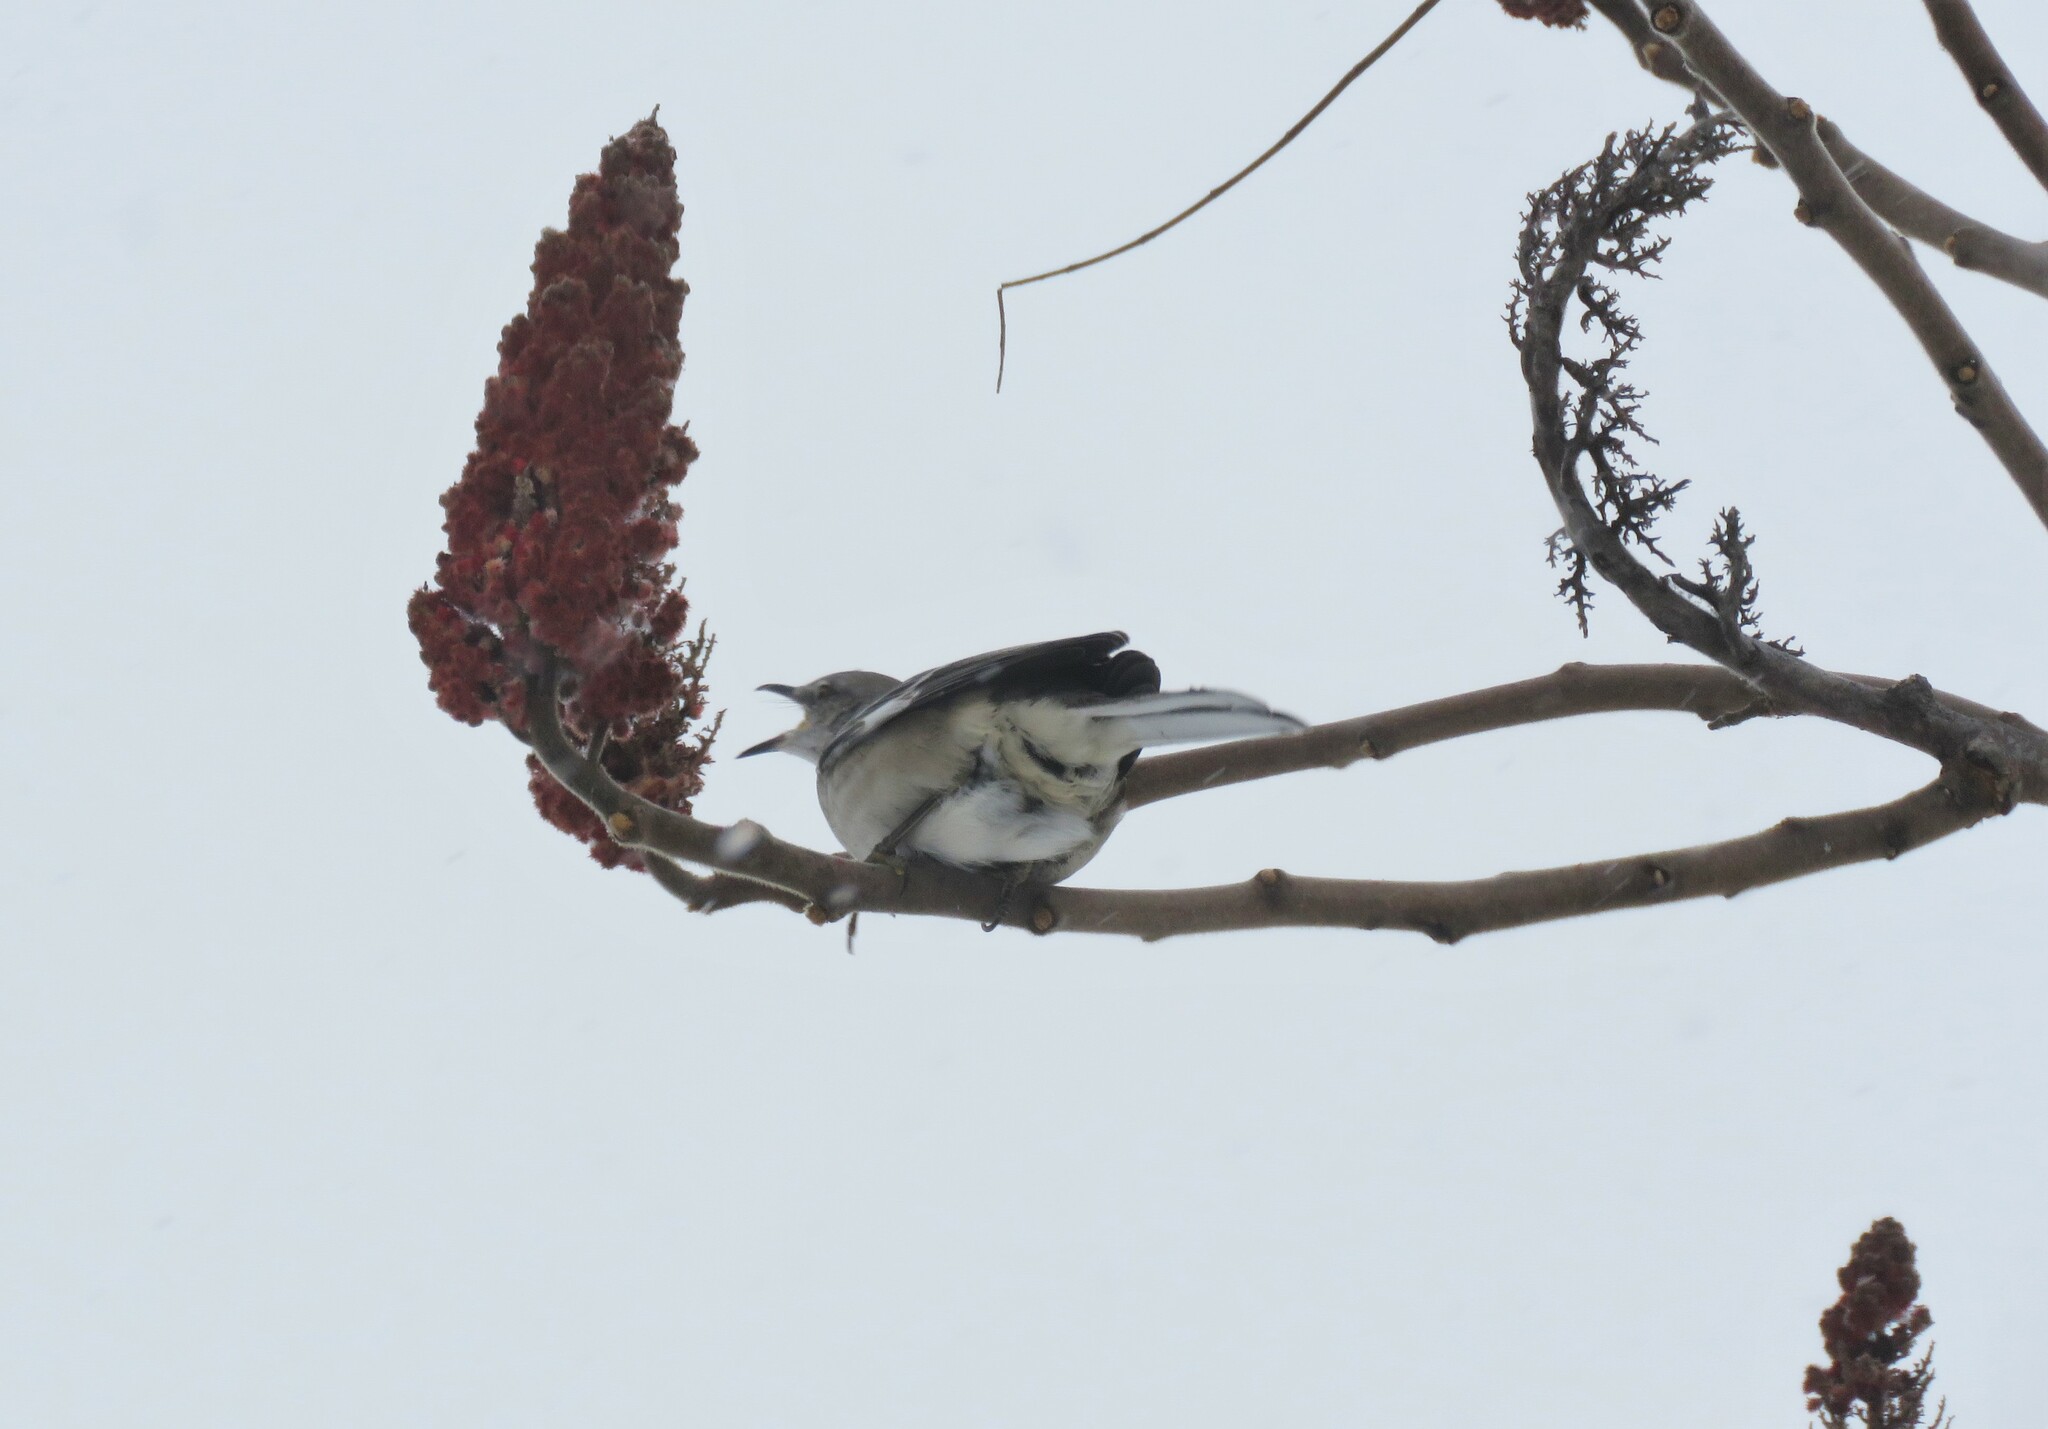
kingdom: Animalia
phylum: Chordata
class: Aves
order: Passeriformes
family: Mimidae
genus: Mimus
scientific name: Mimus polyglottos
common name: Northern mockingbird
